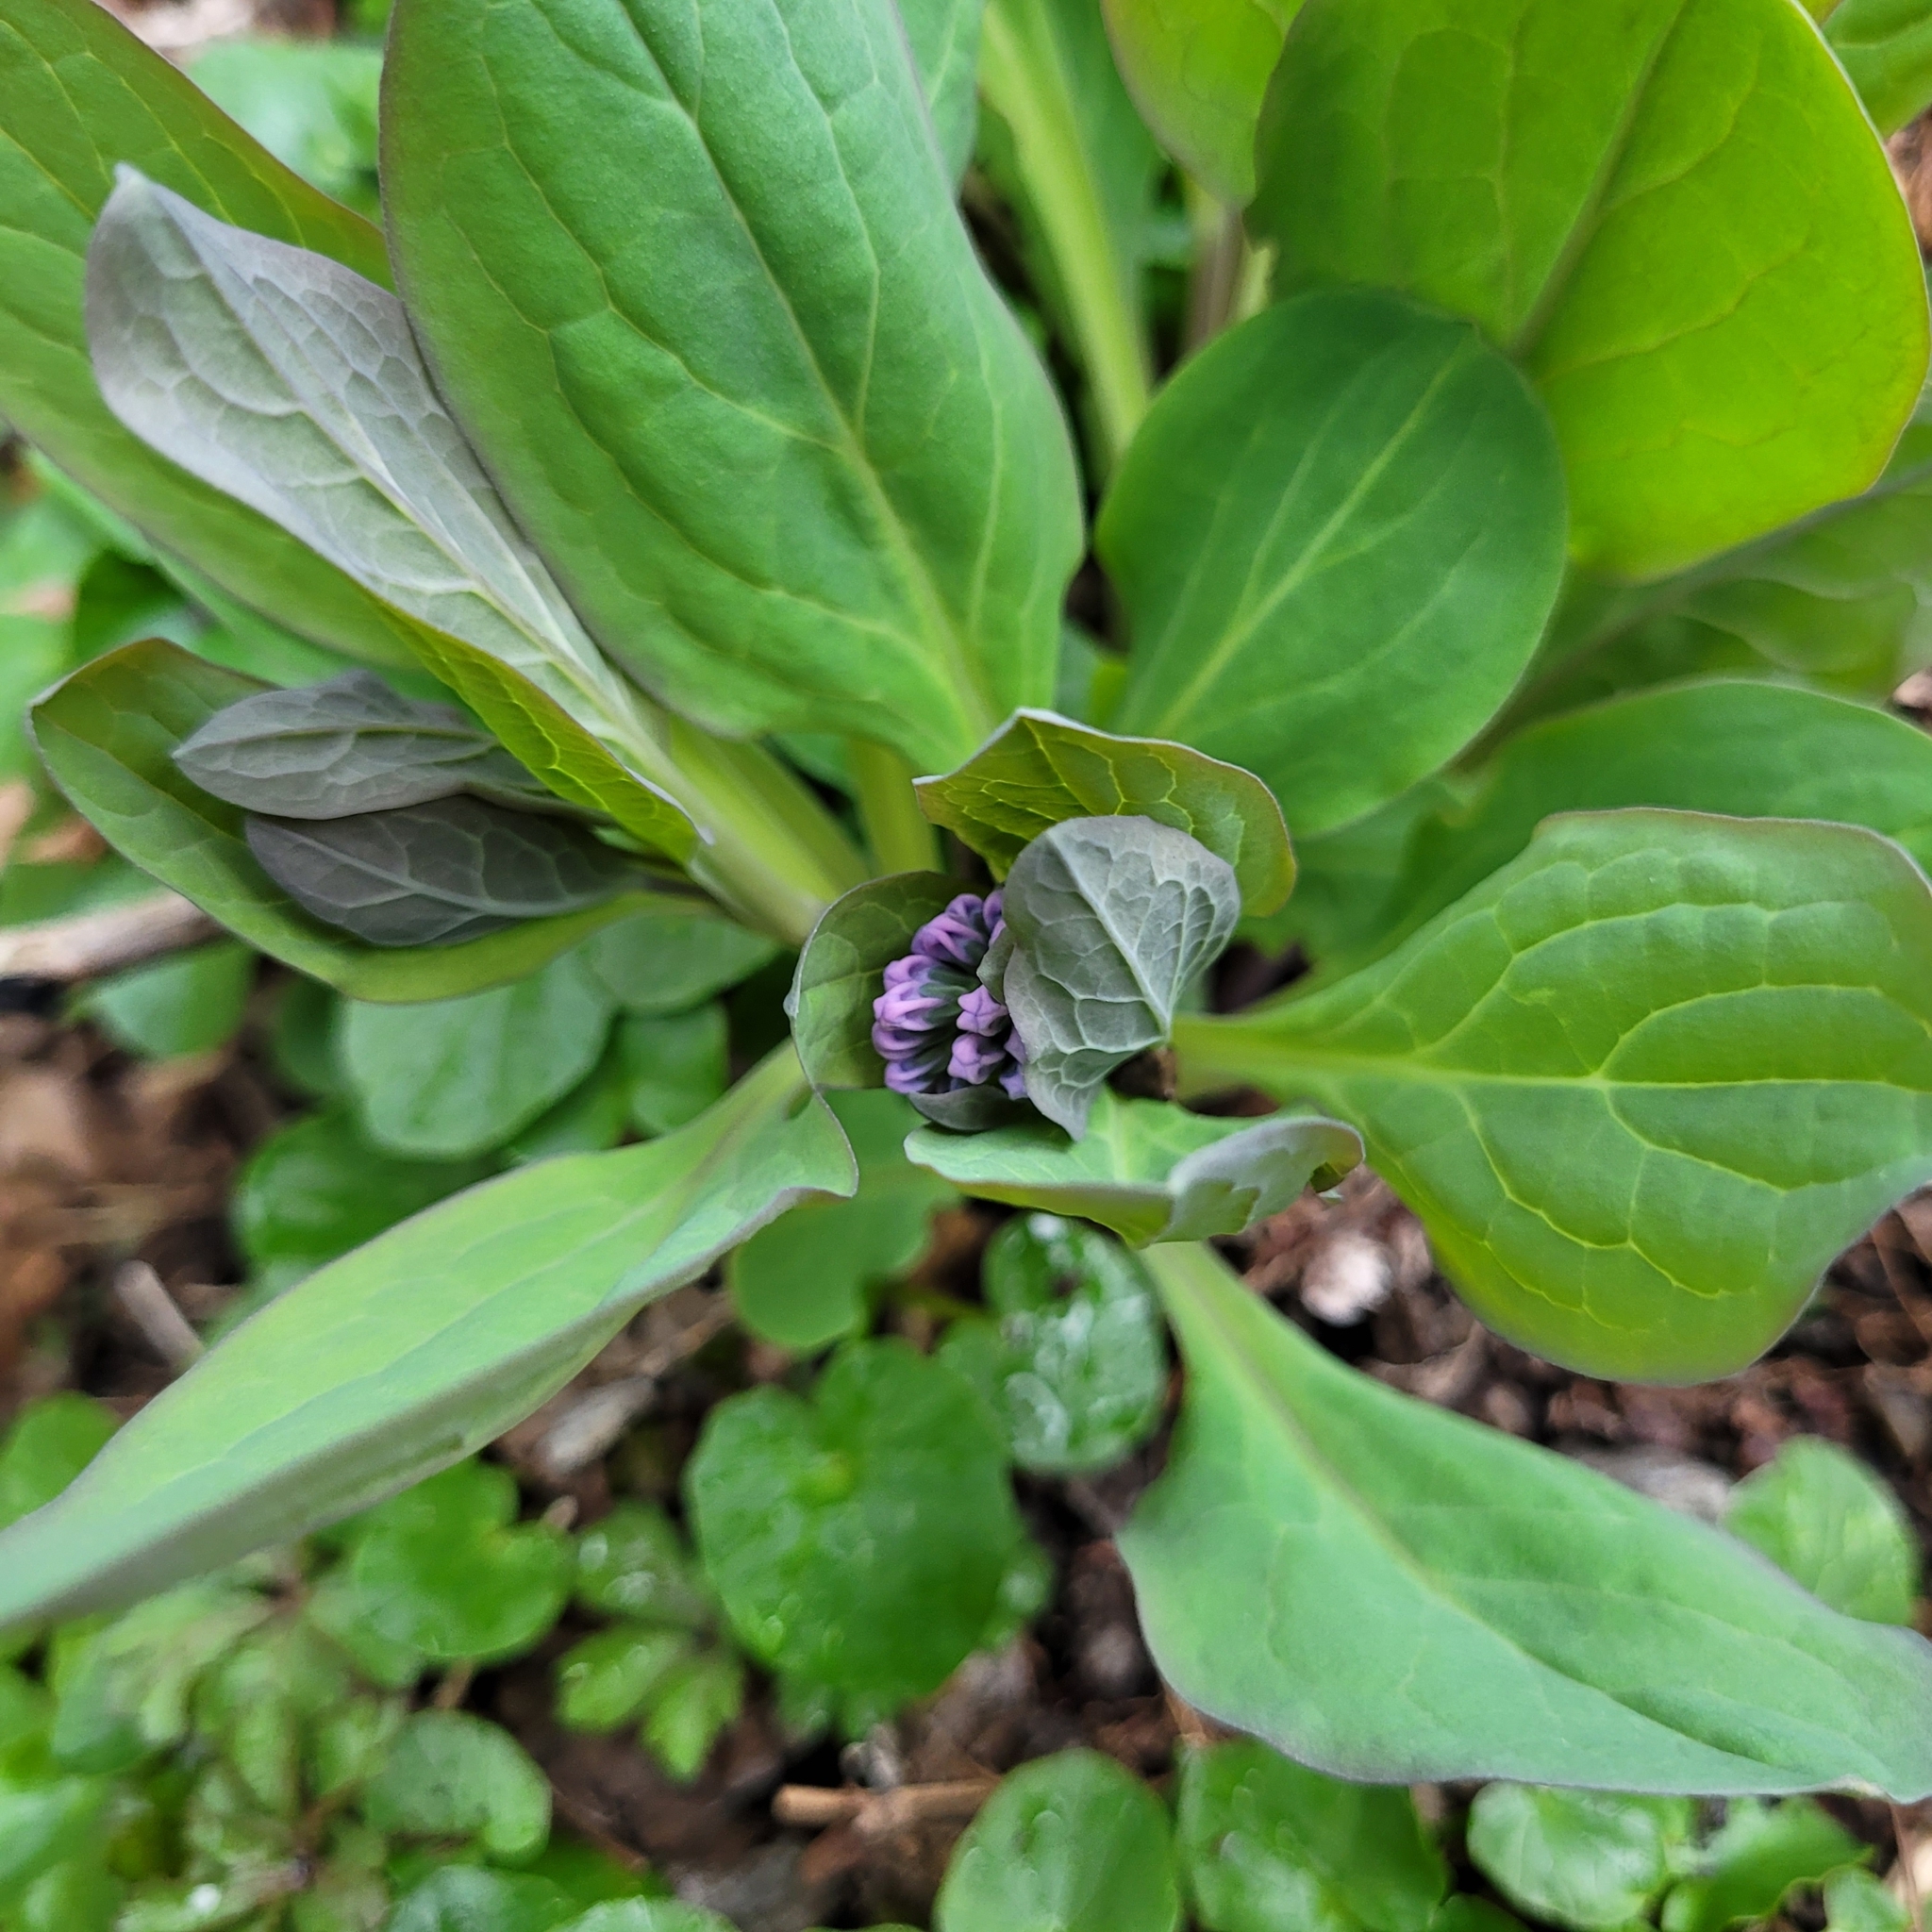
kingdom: Plantae
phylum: Tracheophyta
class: Magnoliopsida
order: Boraginales
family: Boraginaceae
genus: Mertensia
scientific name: Mertensia virginica
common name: Virginia bluebells
